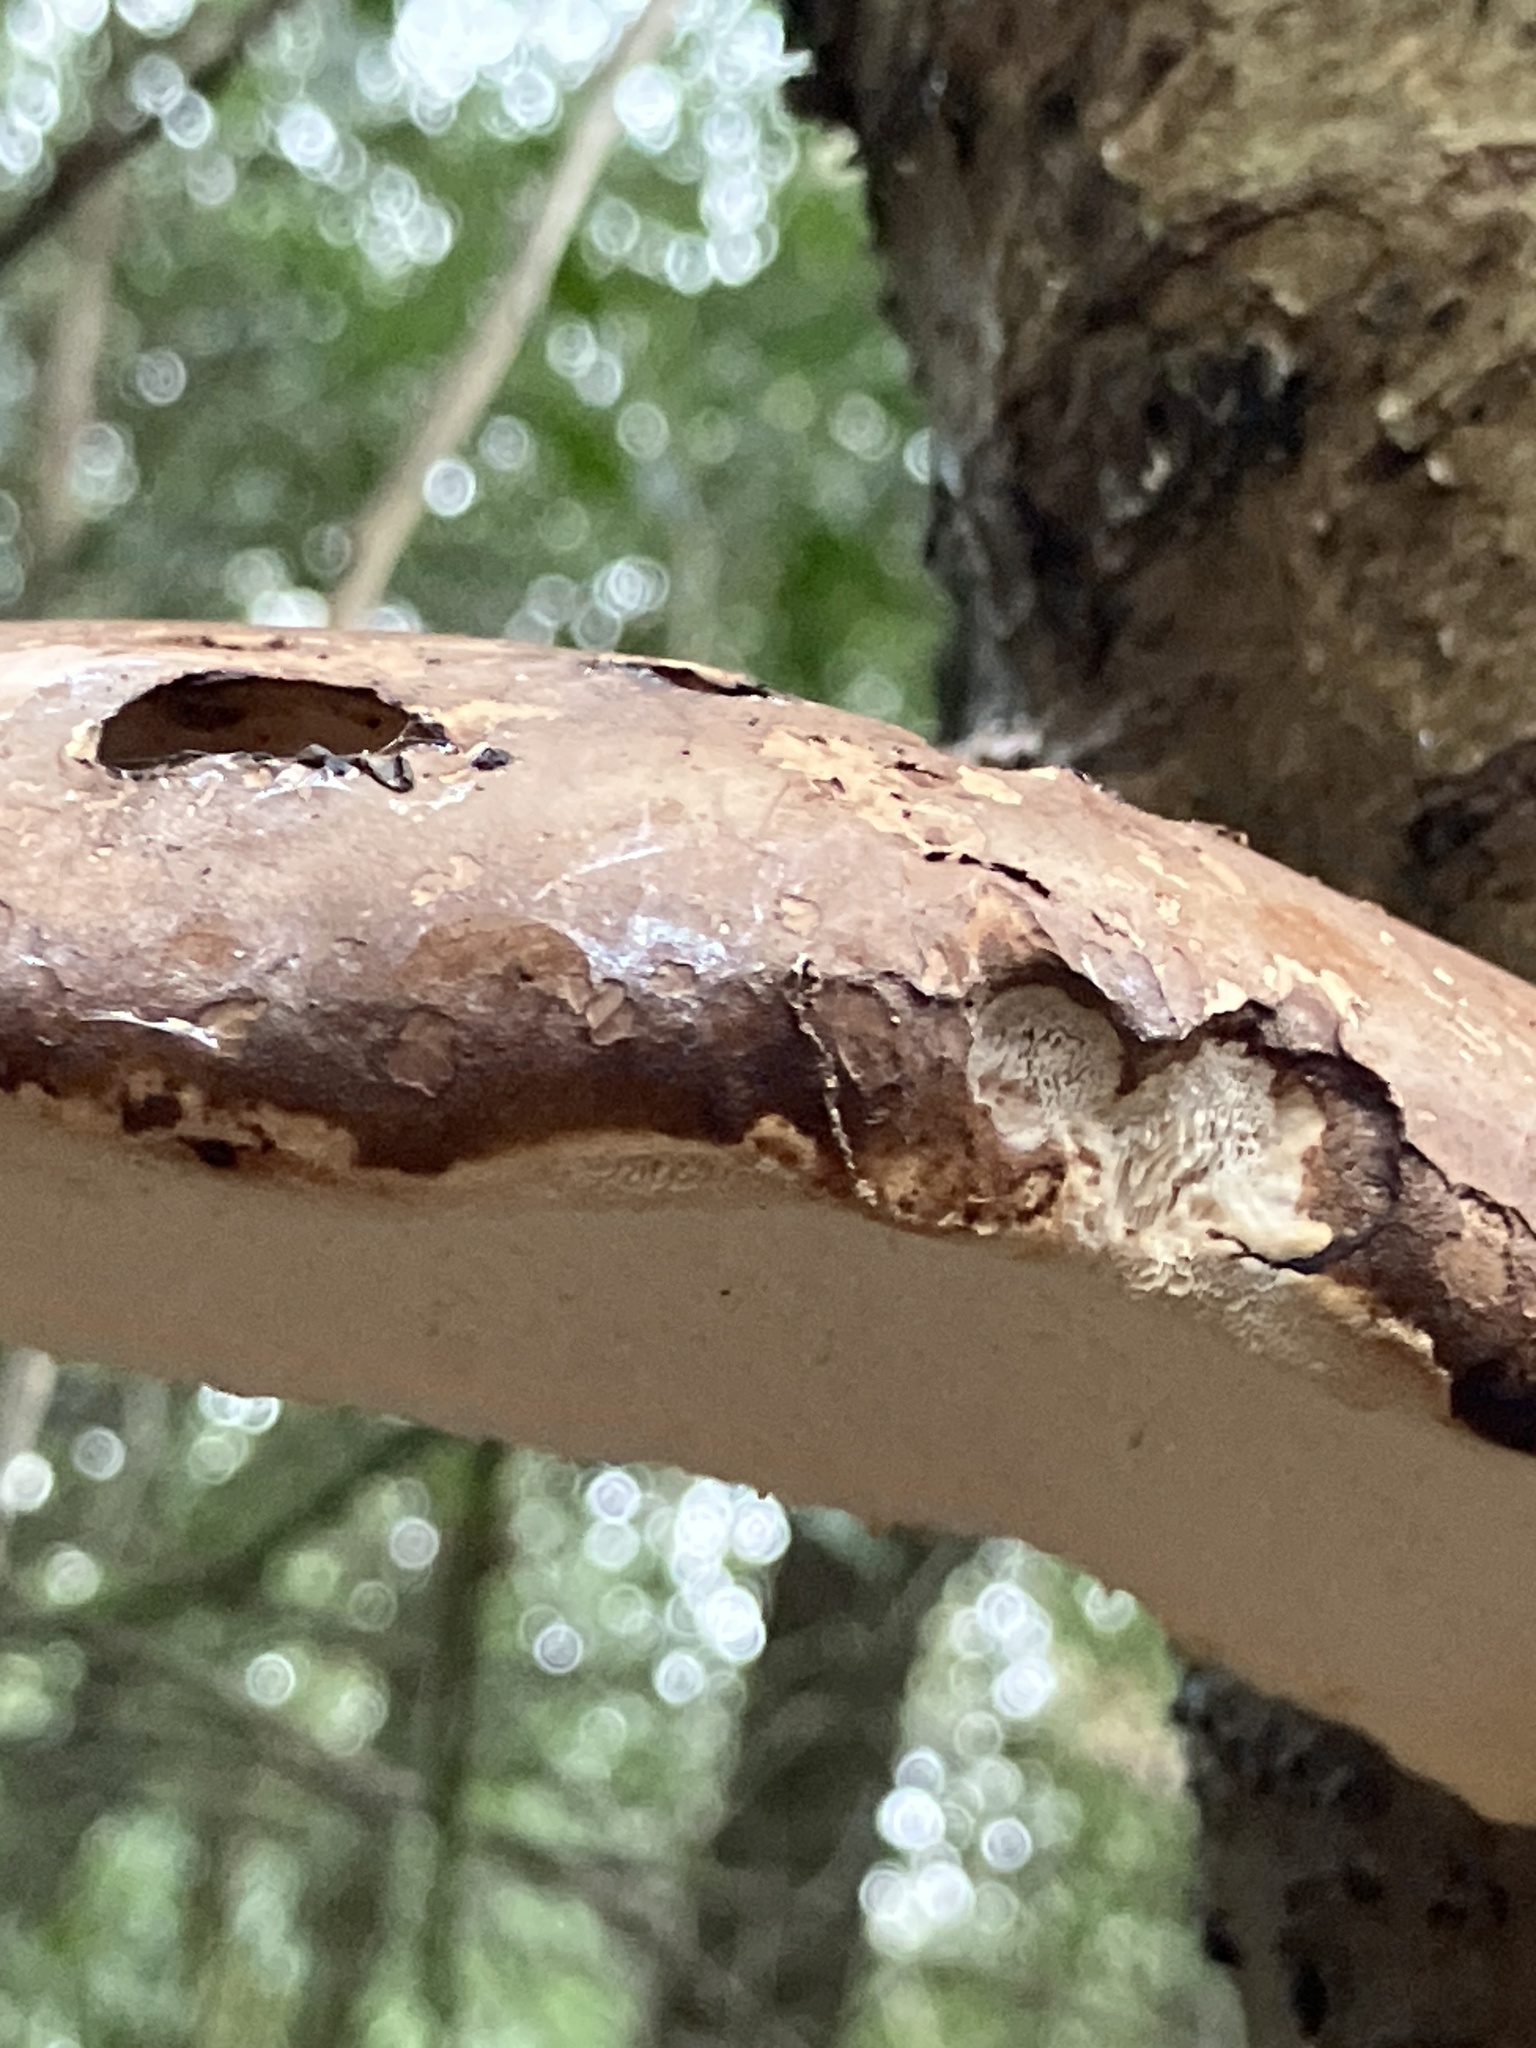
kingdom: Fungi
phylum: Basidiomycota
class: Agaricomycetes
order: Polyporales
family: Fomitopsidaceae
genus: Fomitopsis
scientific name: Fomitopsis betulina
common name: Birch polypore
